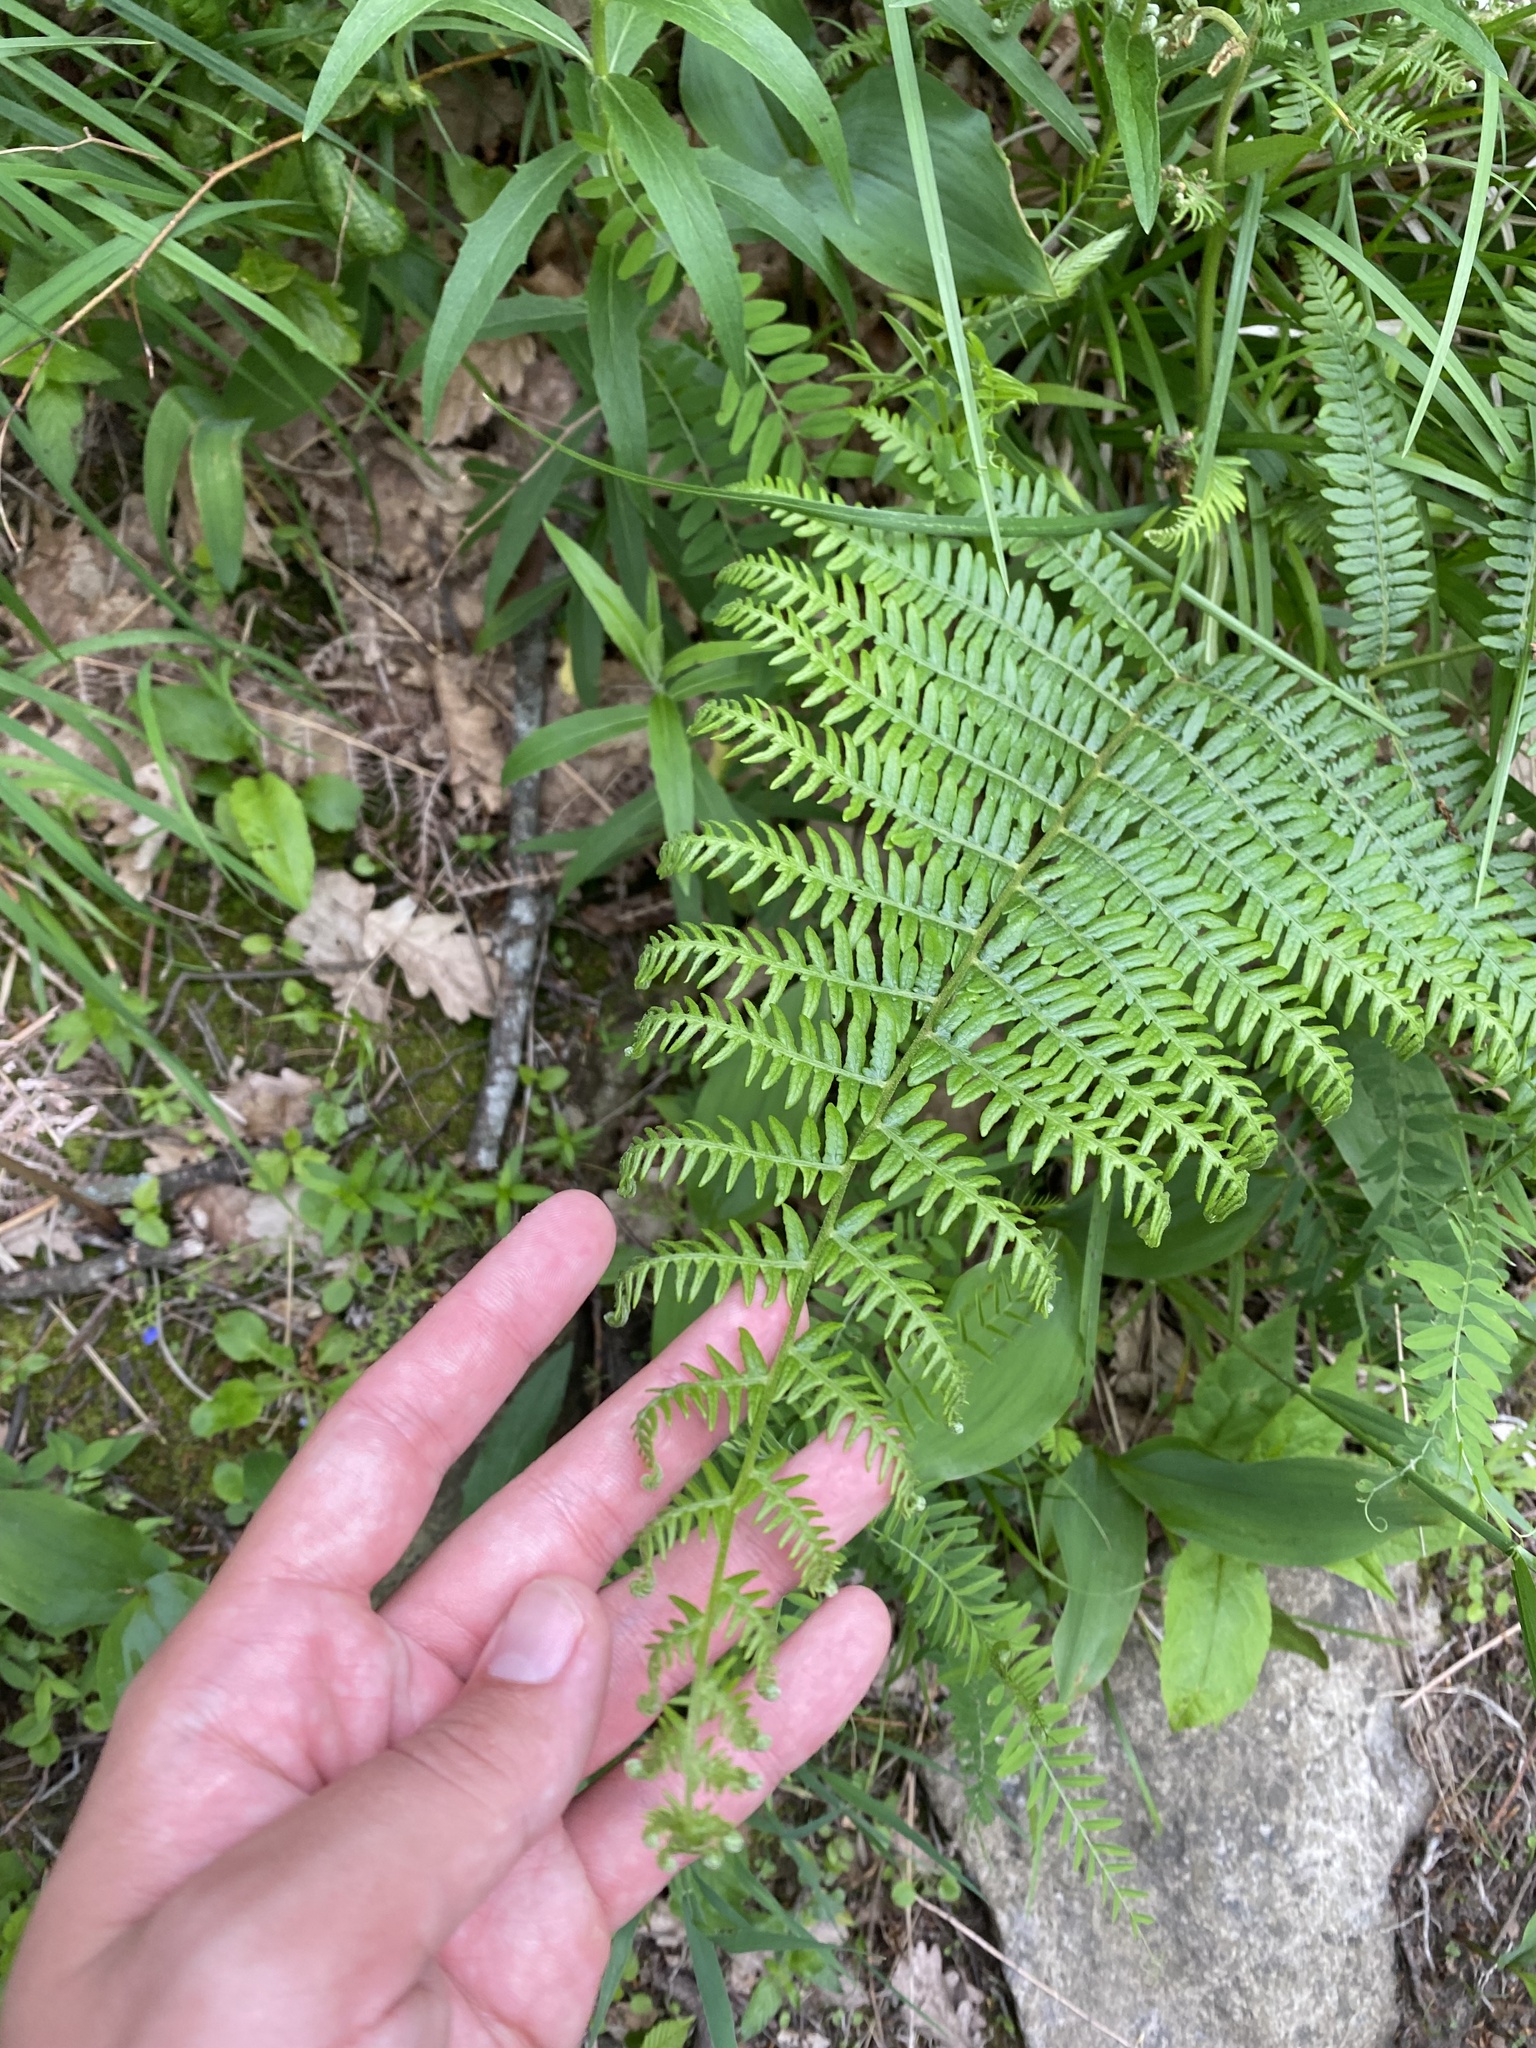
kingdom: Plantae
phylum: Tracheophyta
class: Polypodiopsida
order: Polypodiales
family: Dennstaedtiaceae
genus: Pteridium
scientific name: Pteridium tauricum
